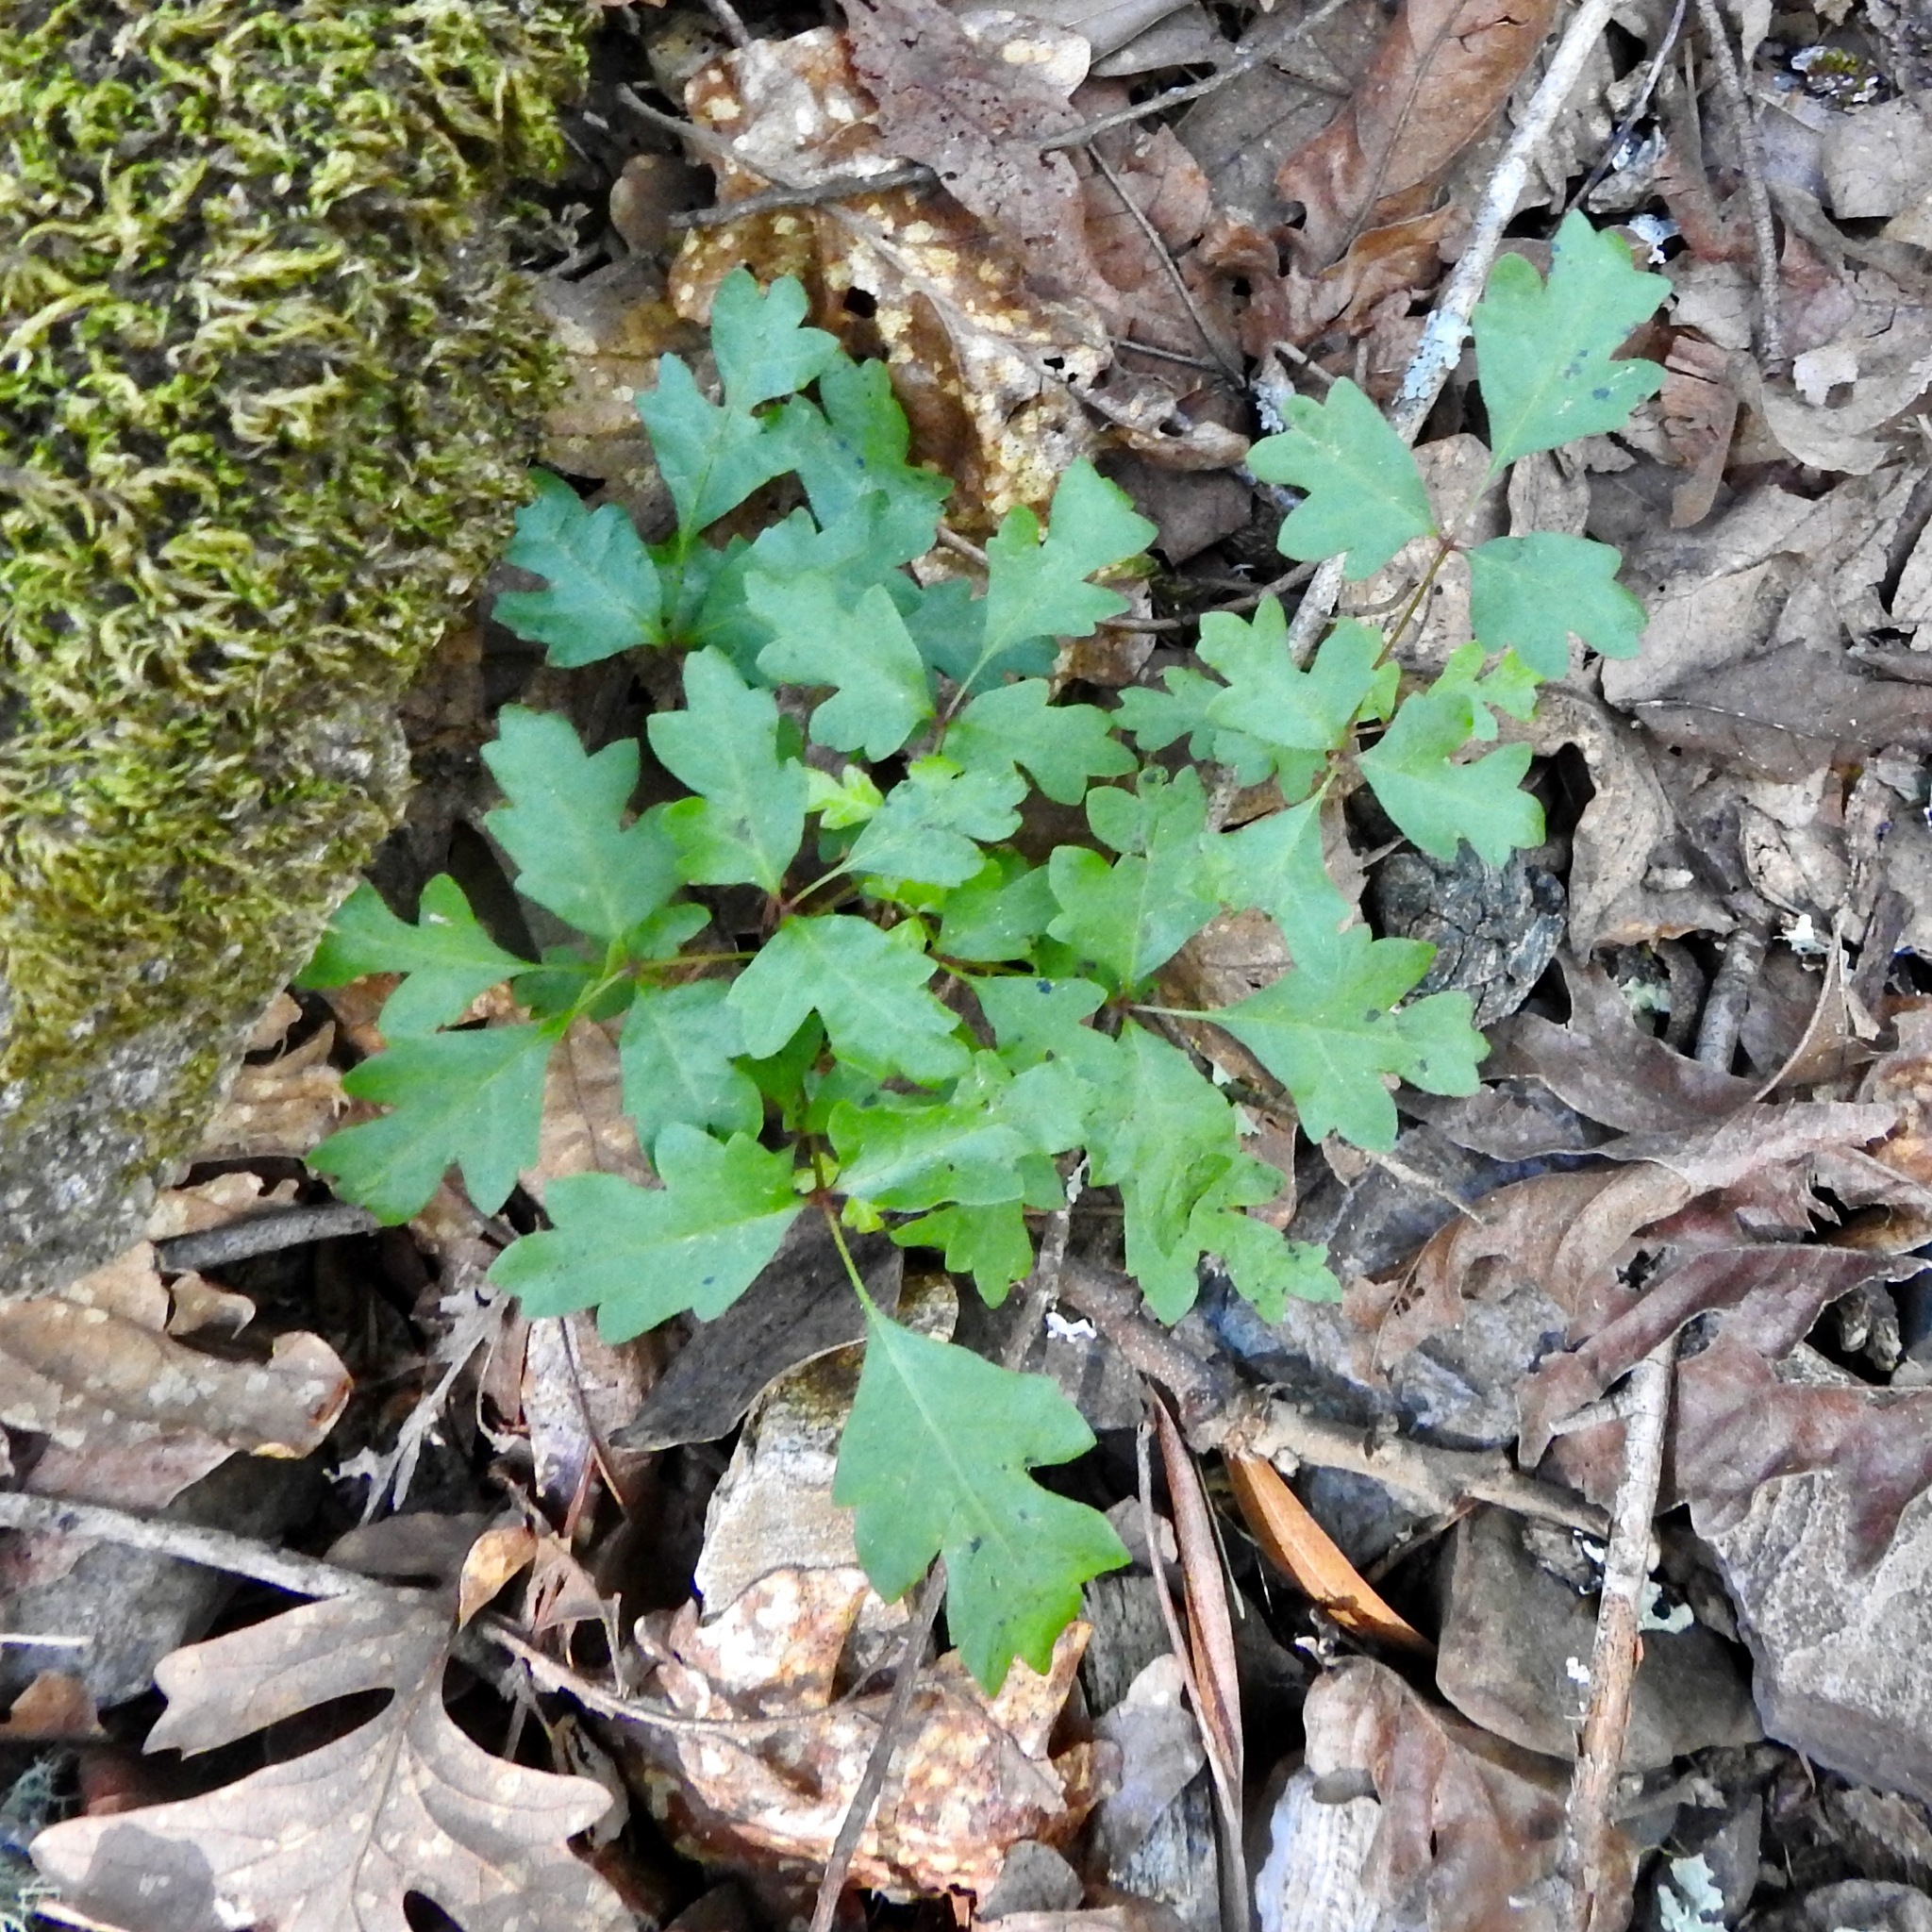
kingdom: Plantae
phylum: Tracheophyta
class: Magnoliopsida
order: Sapindales
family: Anacardiaceae
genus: Toxicodendron
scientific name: Toxicodendron diversilobum
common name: Pacific poison-oak
